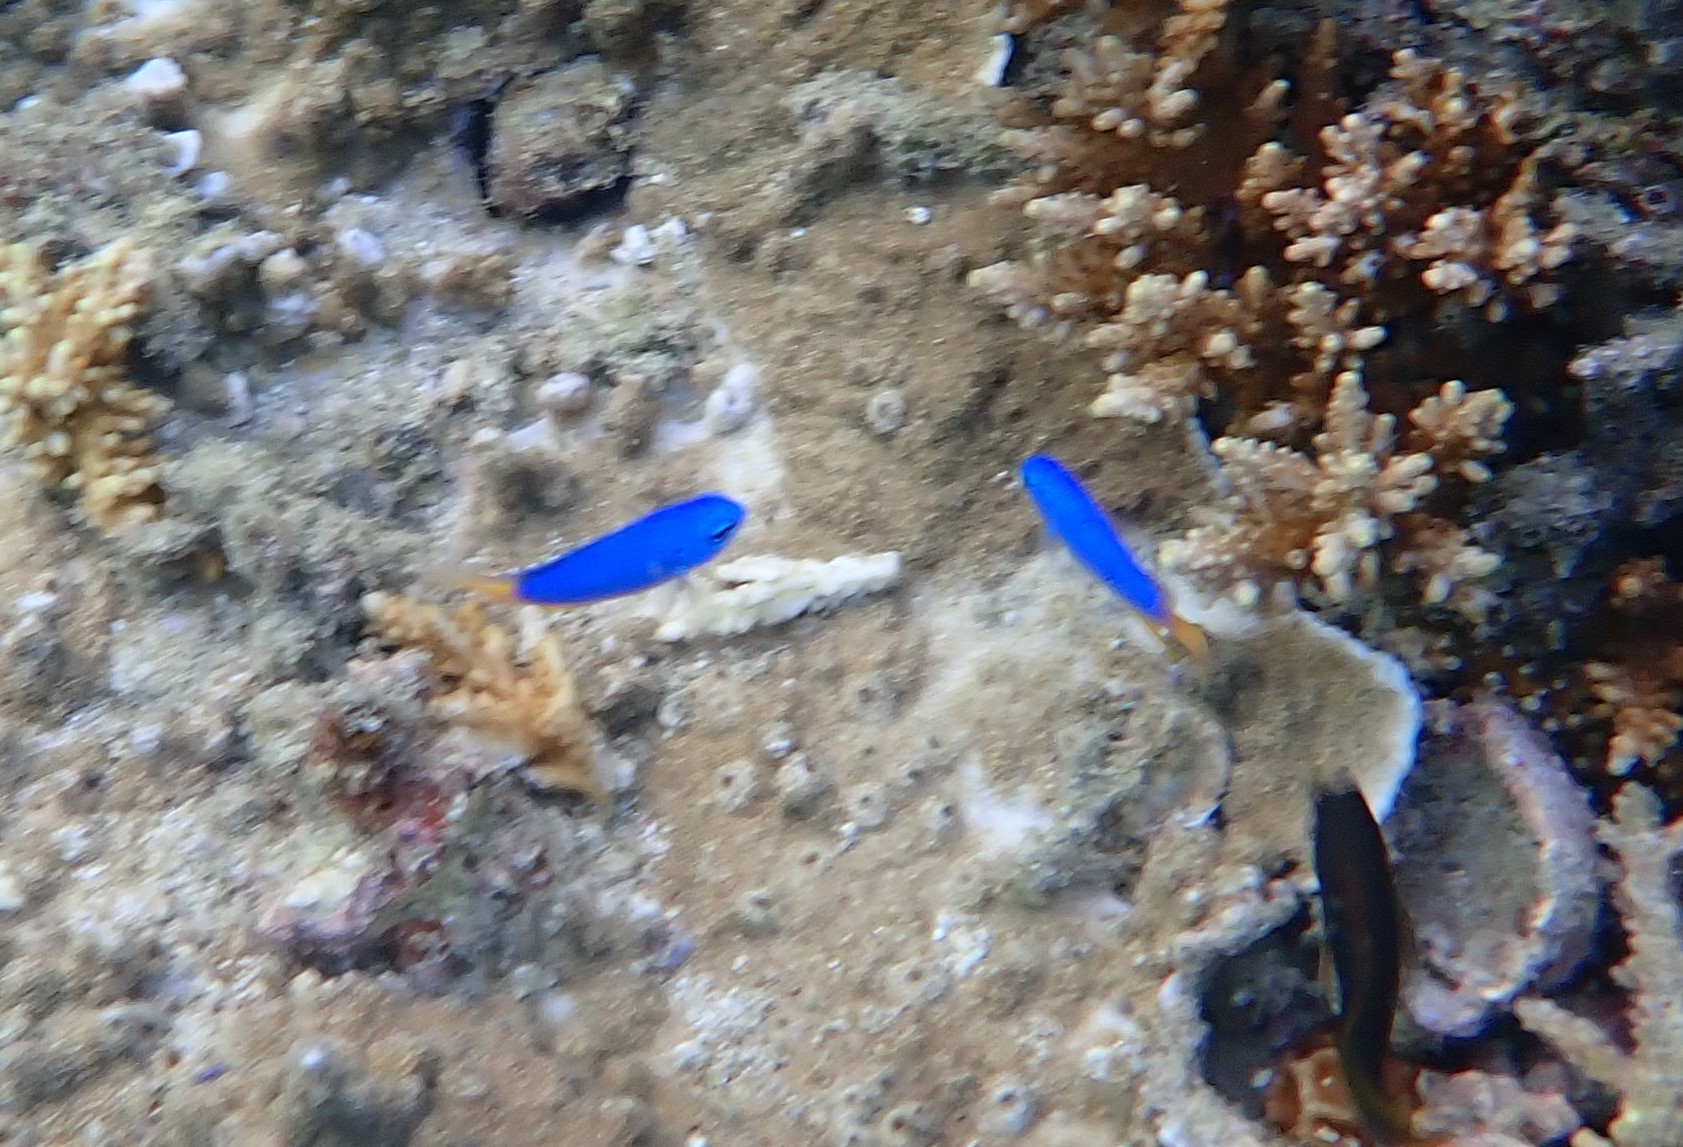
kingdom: Animalia
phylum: Chordata
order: Perciformes
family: Pomacentridae
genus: Pomacentrus
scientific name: Pomacentrus coelestis
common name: Neon damsel
